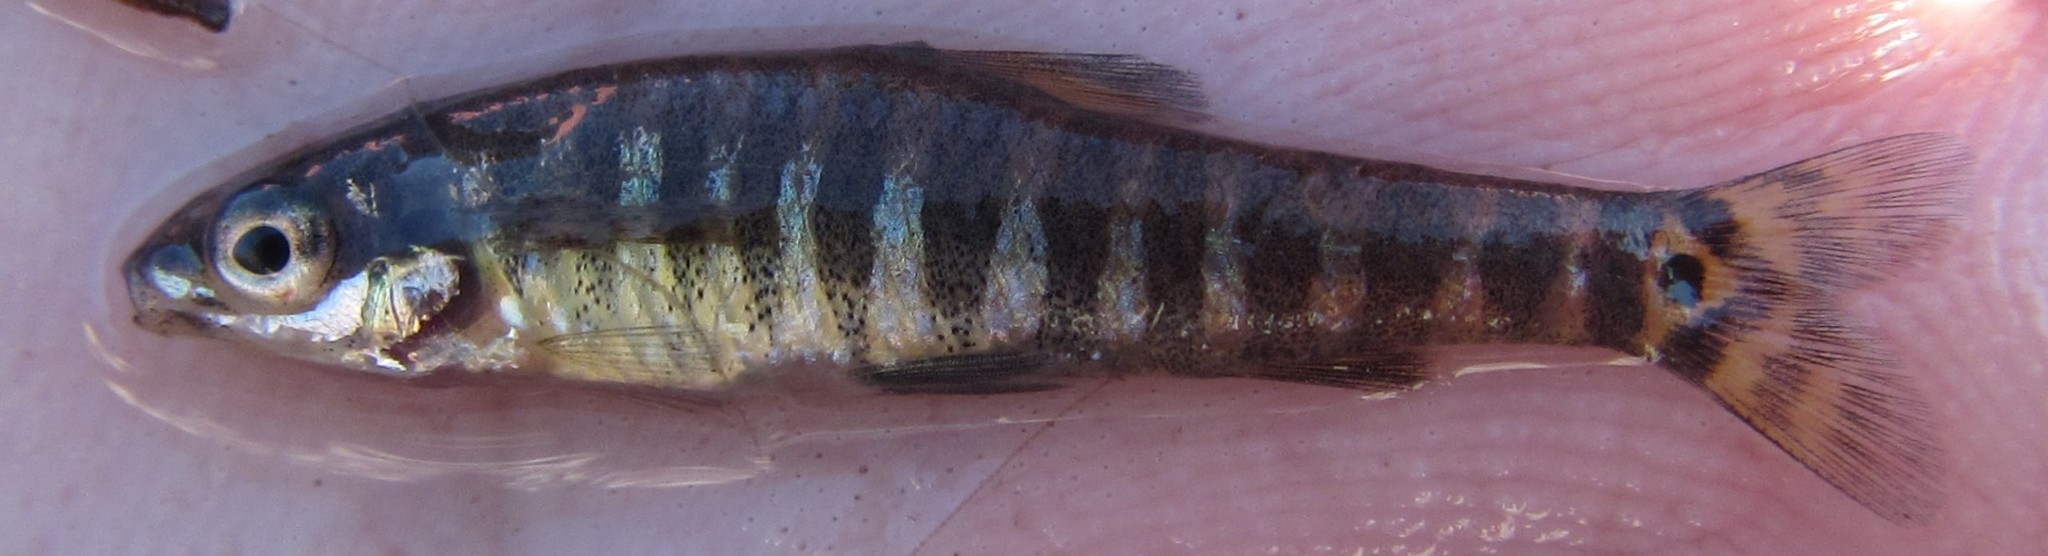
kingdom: Animalia
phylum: Chordata
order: Characiformes
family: Distichodontidae
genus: Nannocharax
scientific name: Nannocharax machadoi
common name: Dwarf citharine
